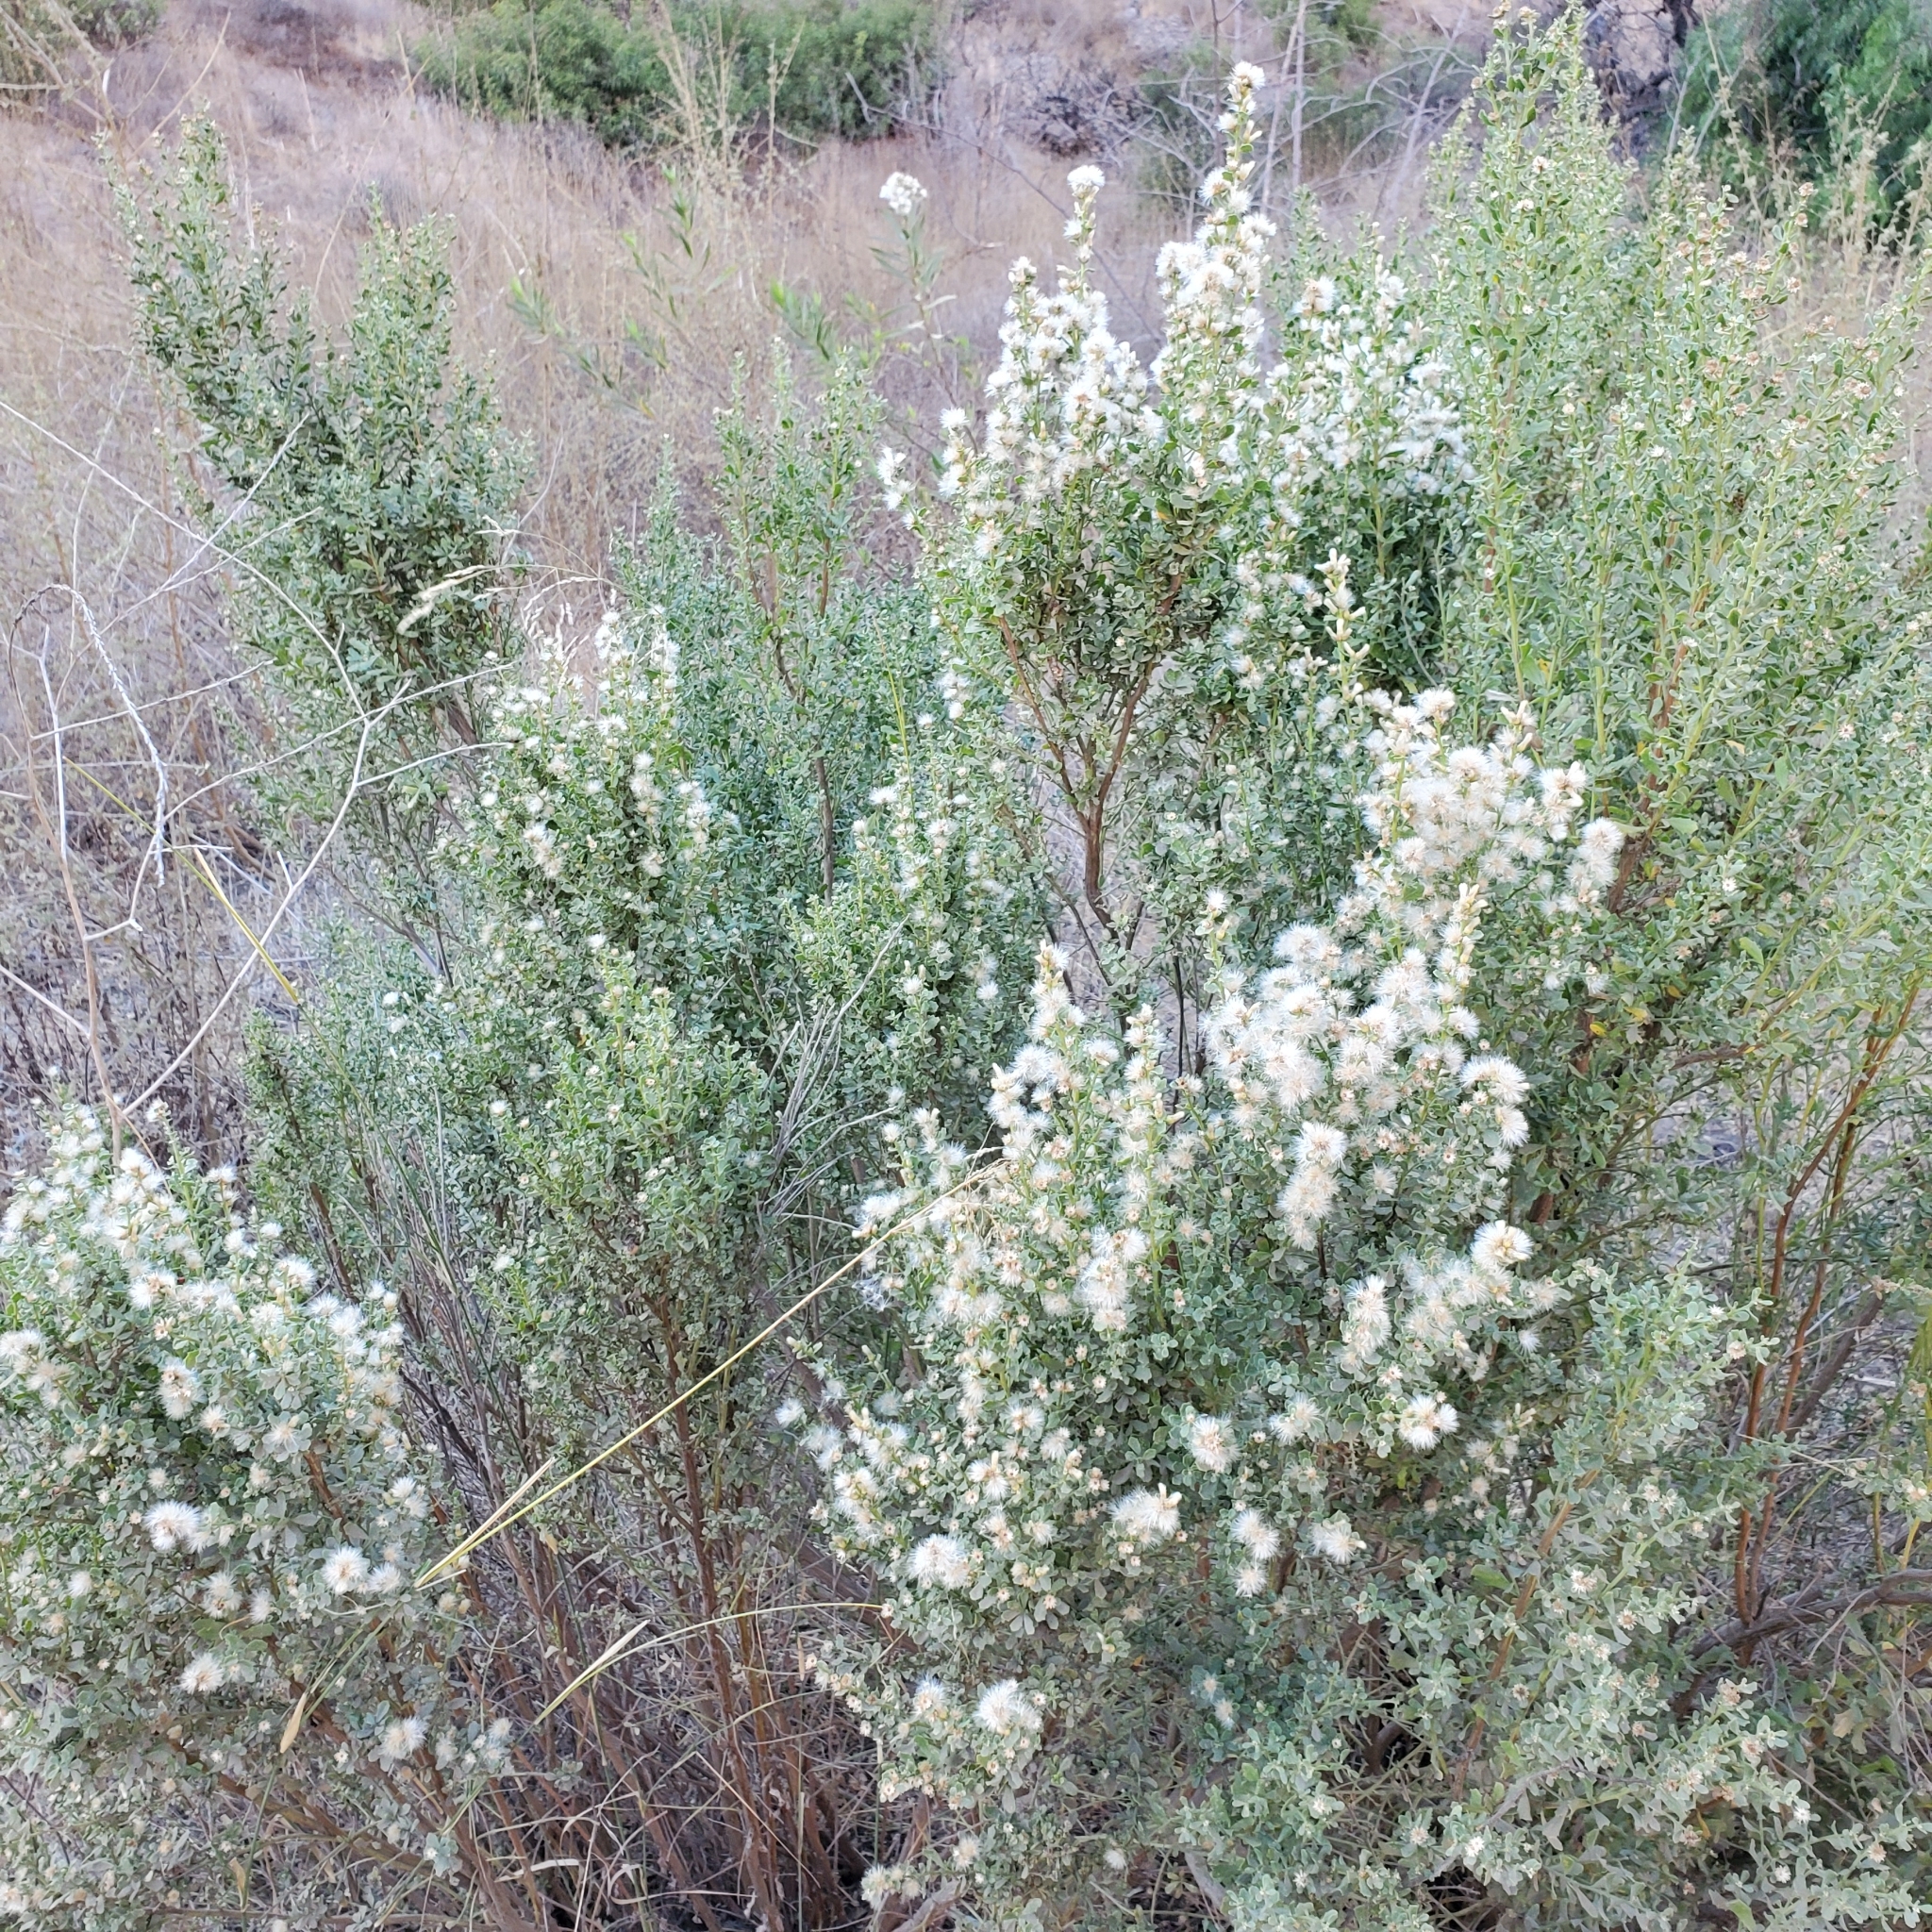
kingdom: Plantae
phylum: Tracheophyta
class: Magnoliopsida
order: Asterales
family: Asteraceae
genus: Baccharis
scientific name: Baccharis pilularis
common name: Coyotebrush
